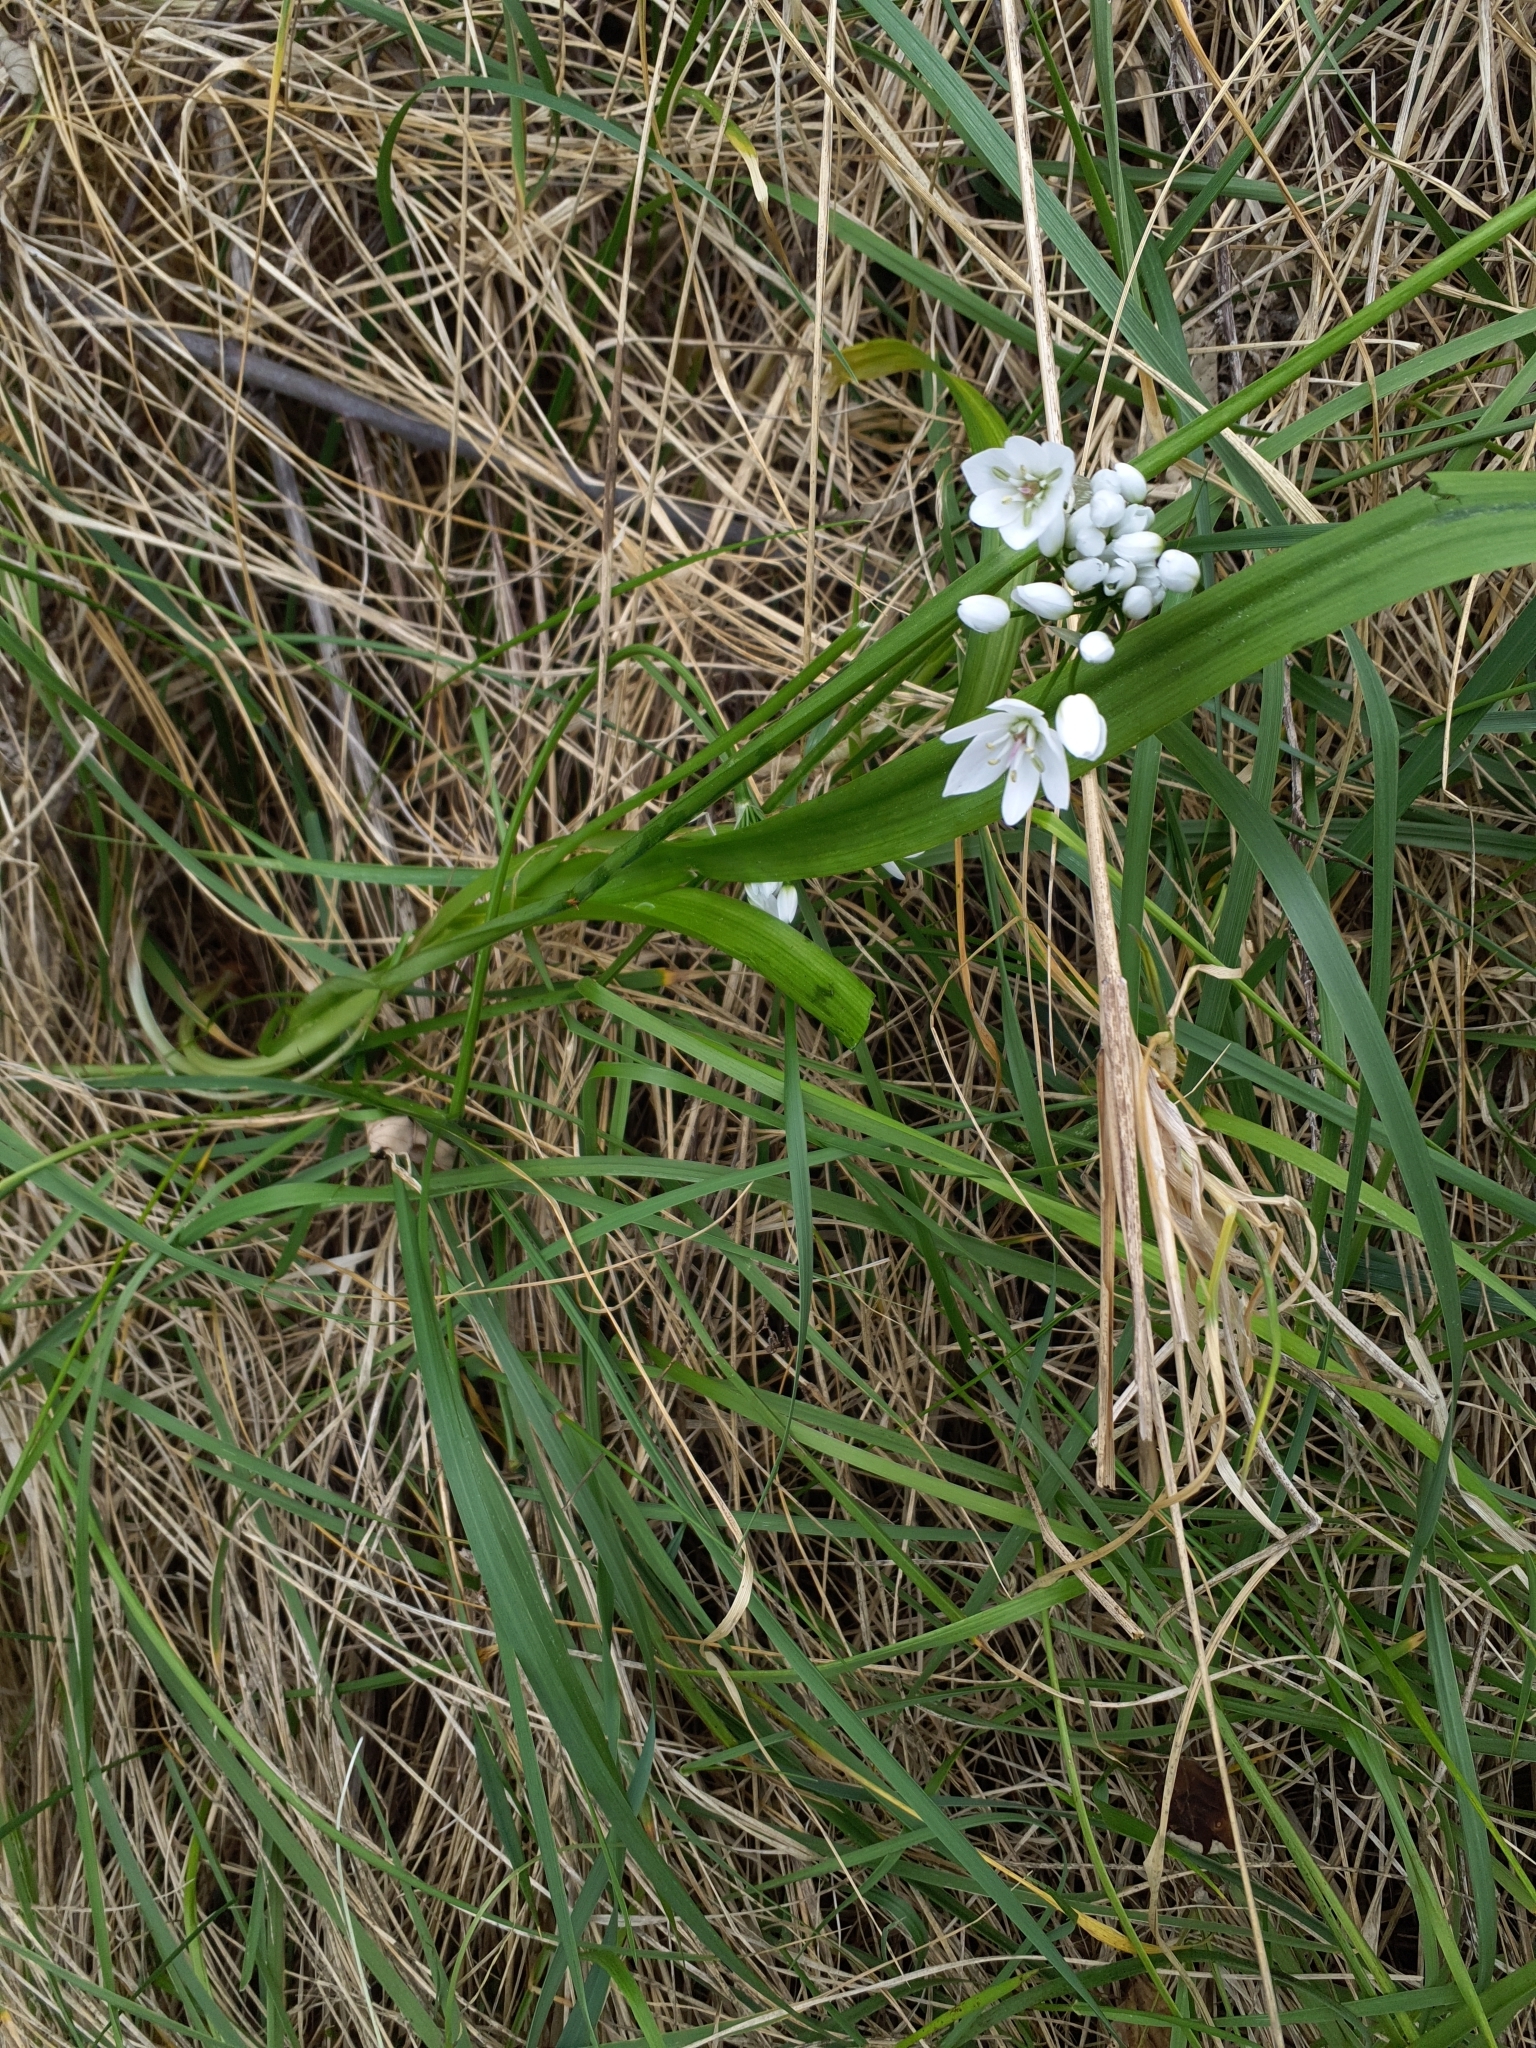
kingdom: Plantae
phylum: Tracheophyta
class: Liliopsida
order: Asparagales
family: Amaryllidaceae
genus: Allium
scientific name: Allium neapolitanum
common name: Neapolitan garlic
